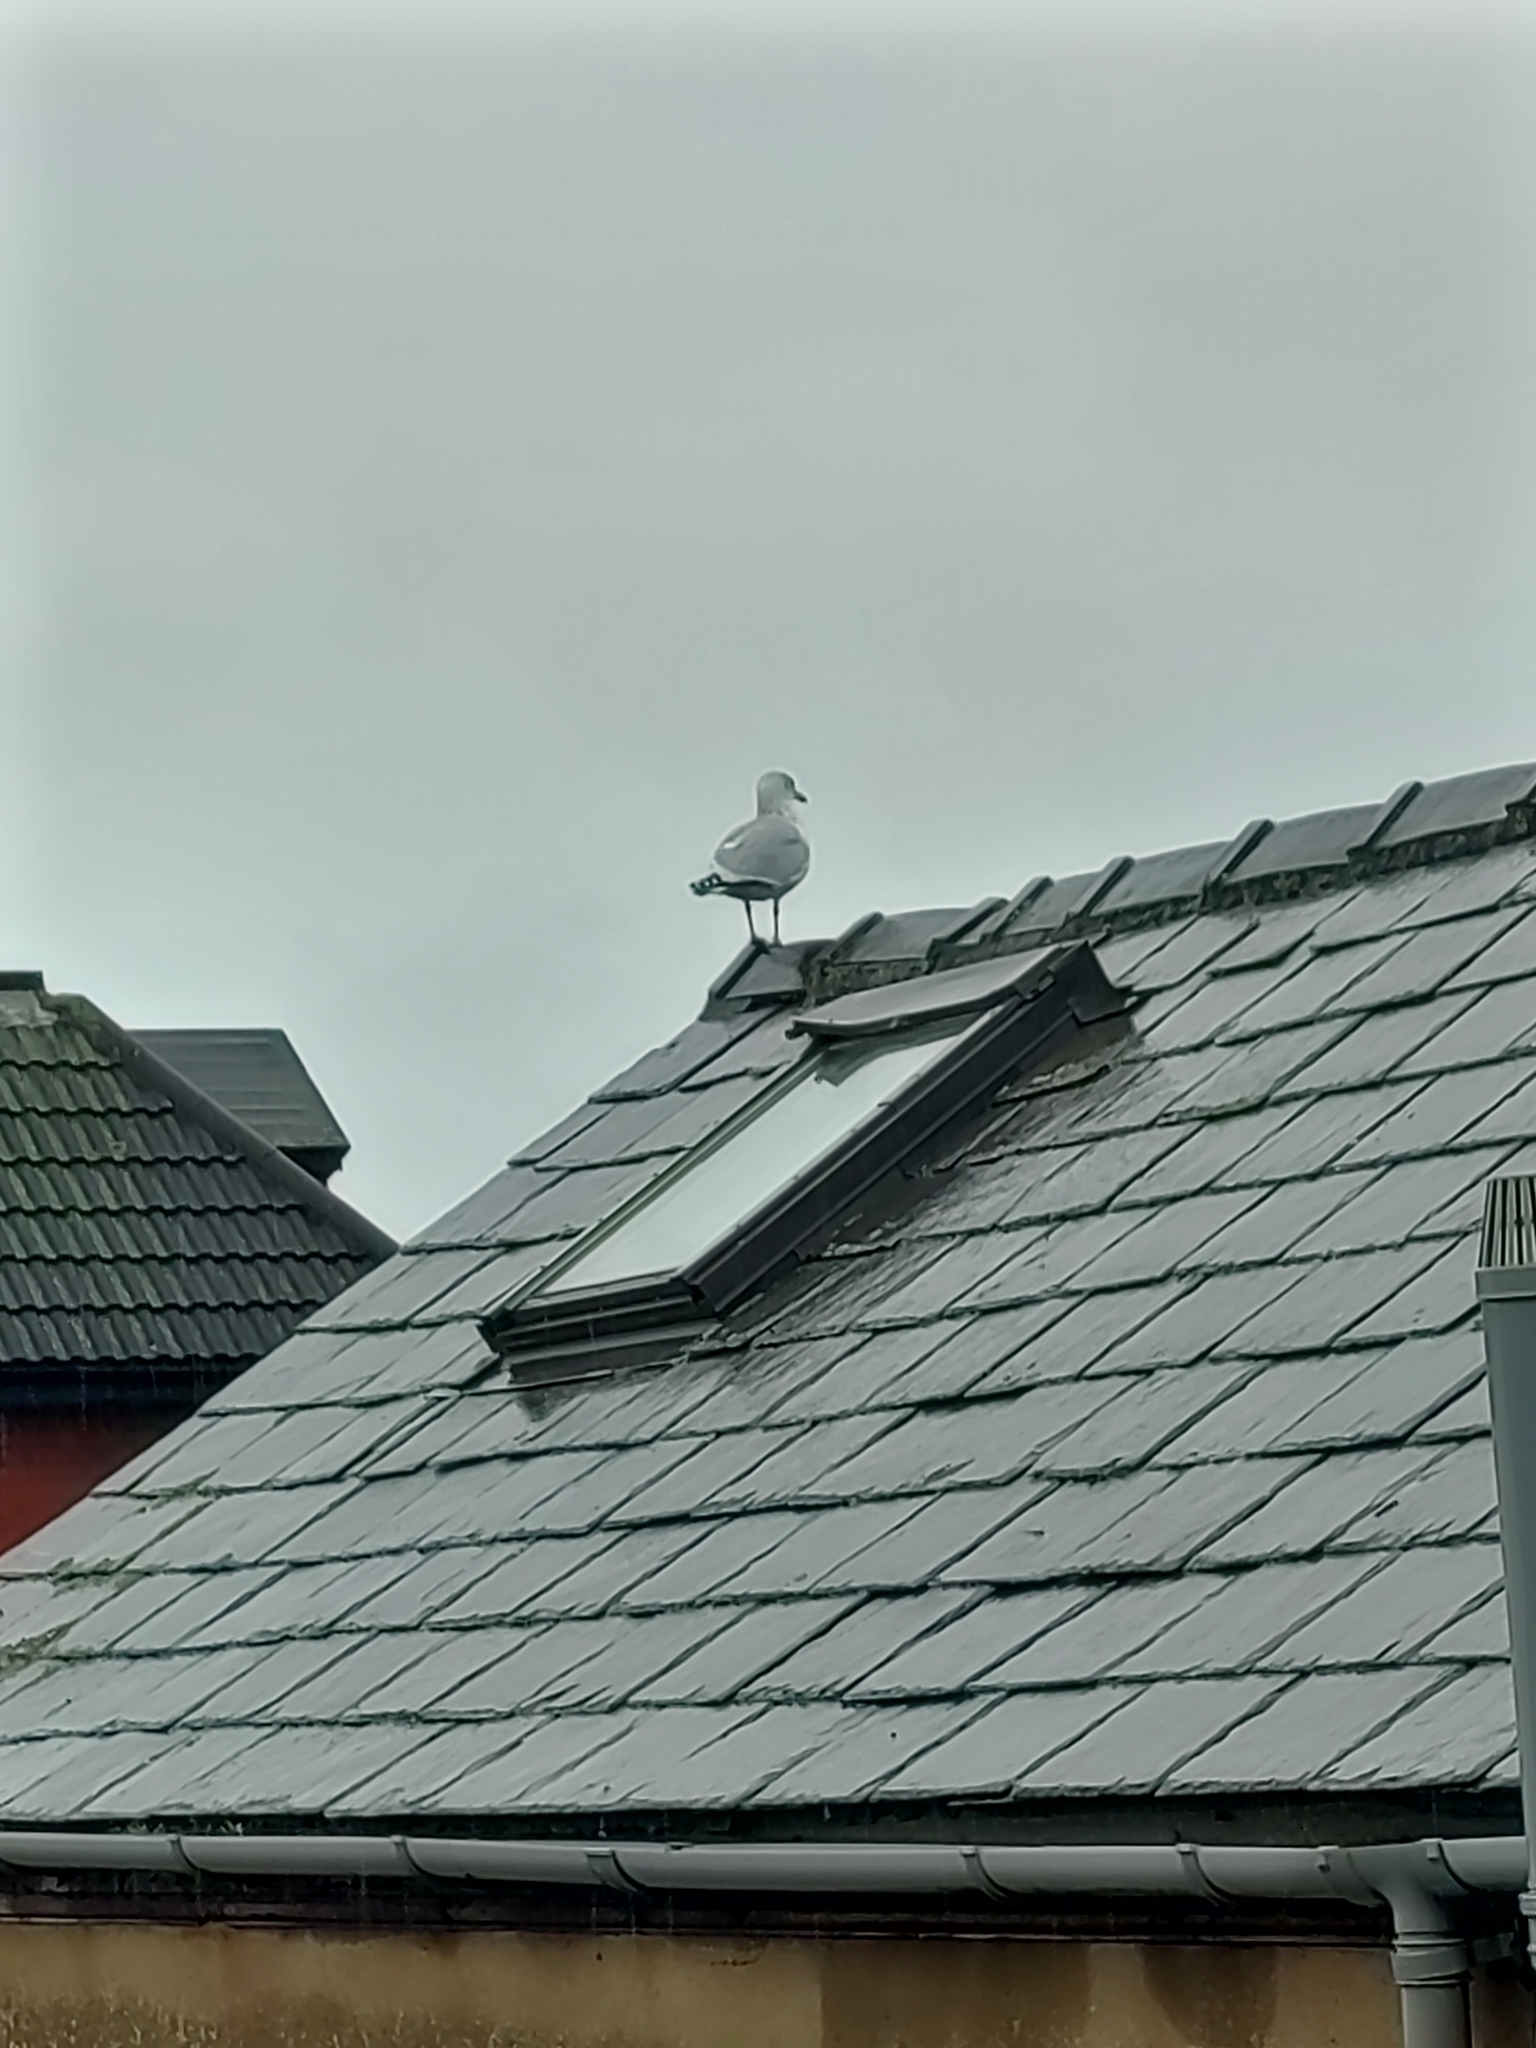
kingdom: Animalia
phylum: Chordata
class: Aves
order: Charadriiformes
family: Laridae
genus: Larus
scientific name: Larus argentatus
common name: Herring gull
